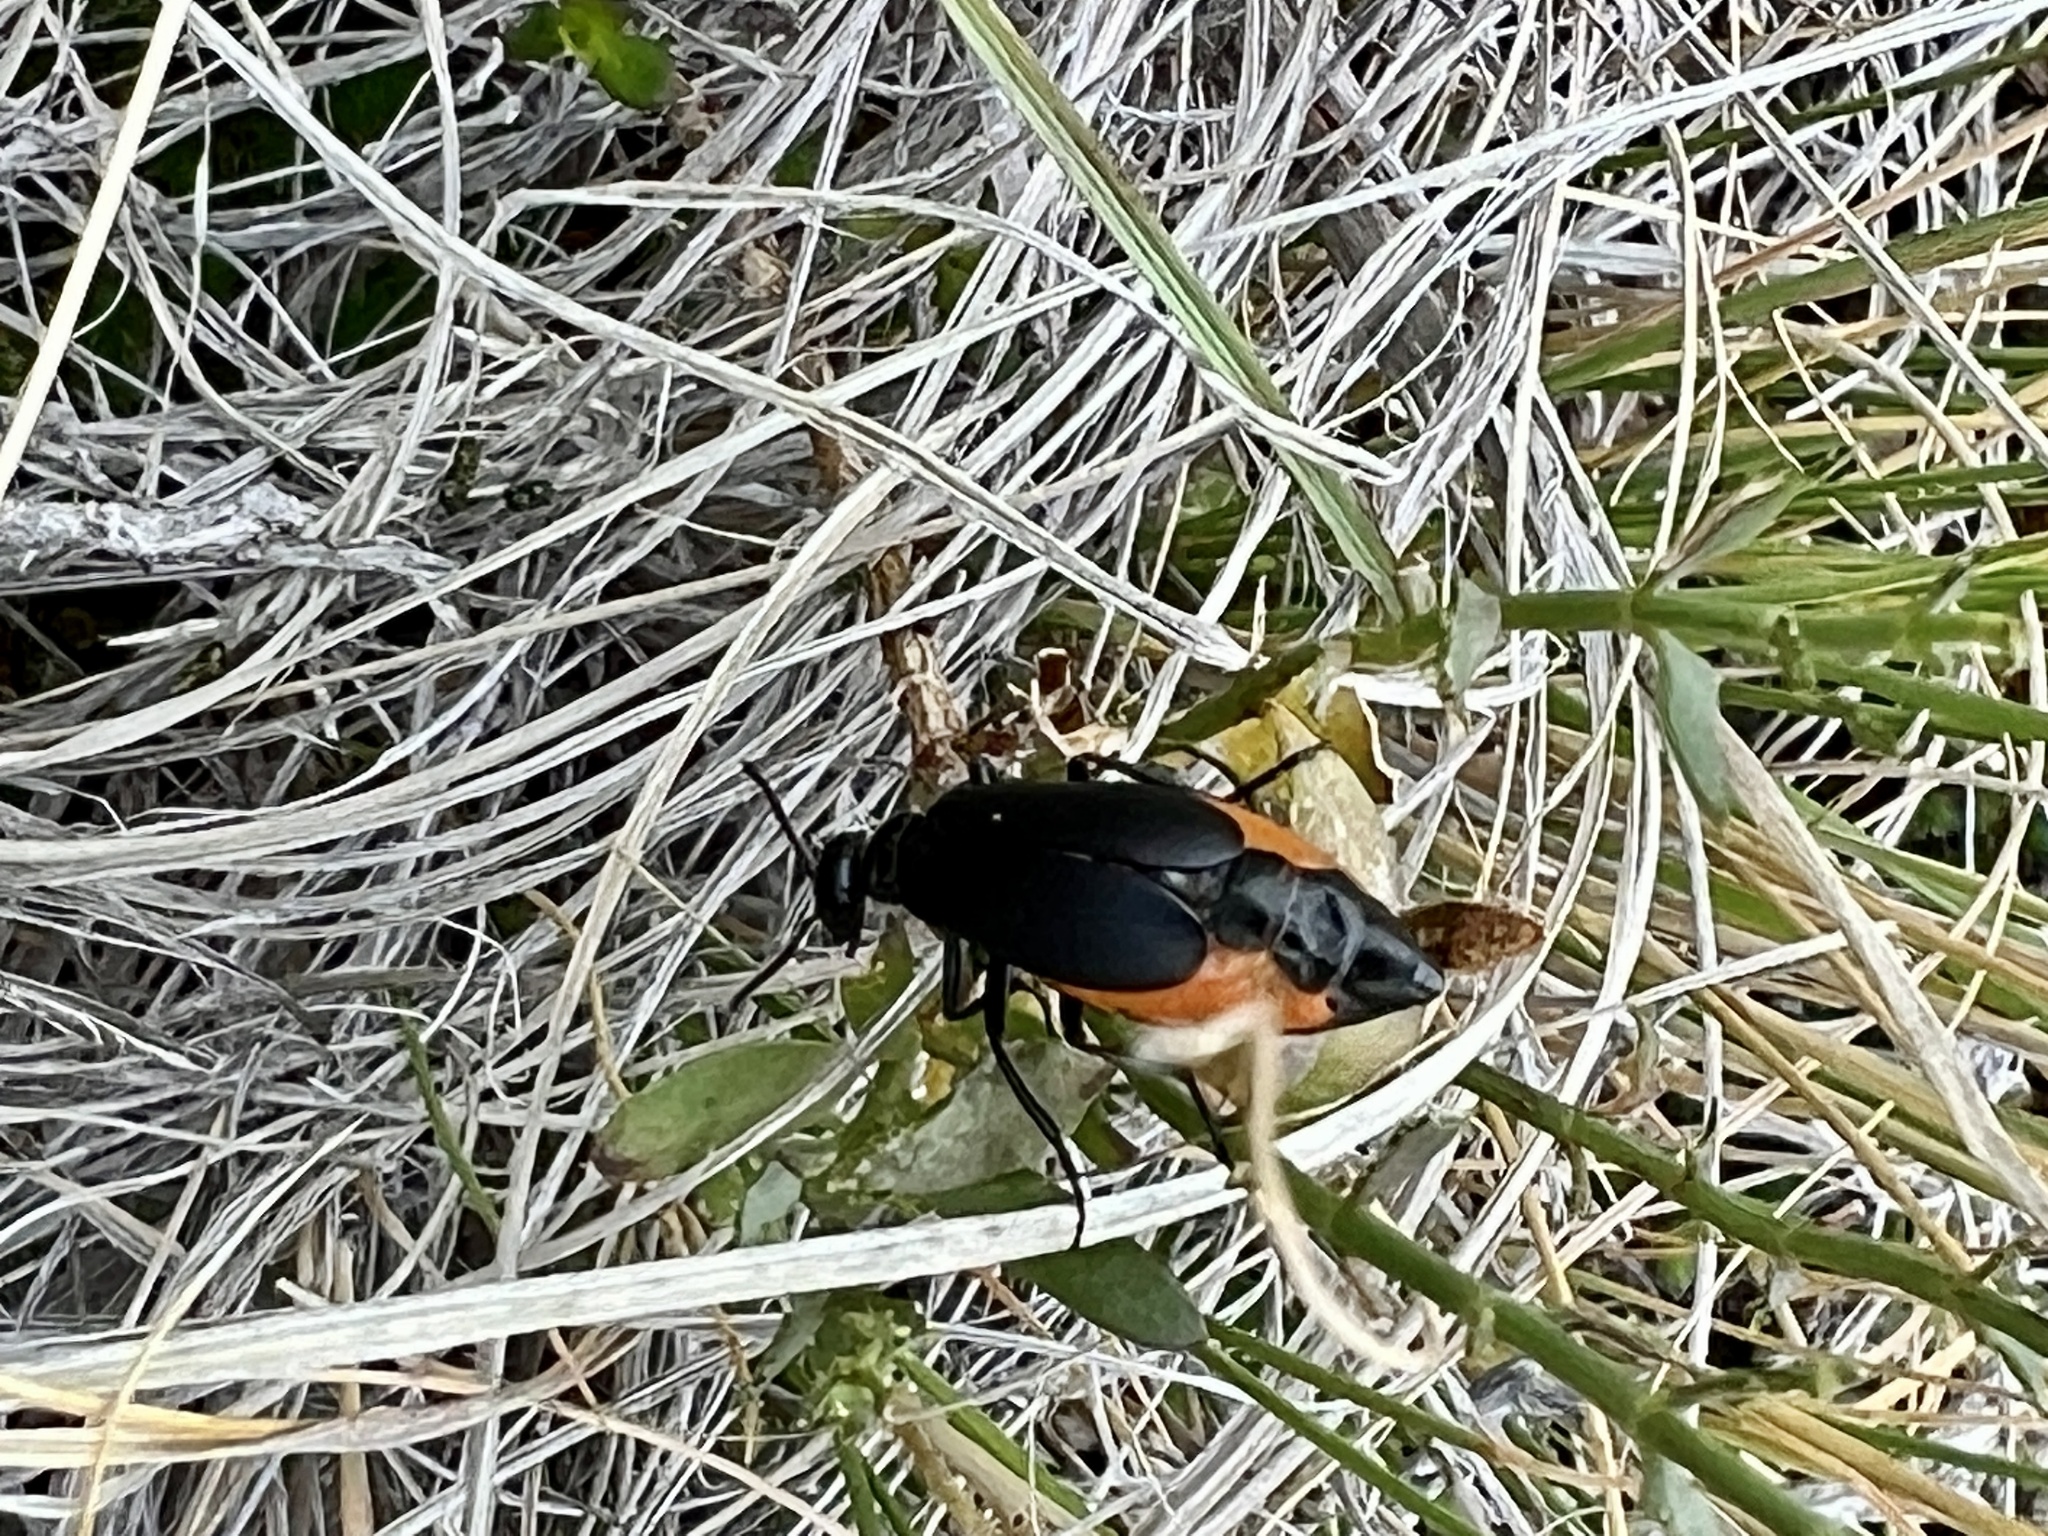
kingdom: Animalia
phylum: Arthropoda
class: Insecta
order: Coleoptera
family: Meloidae
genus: Epicauta
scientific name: Epicauta conferta
